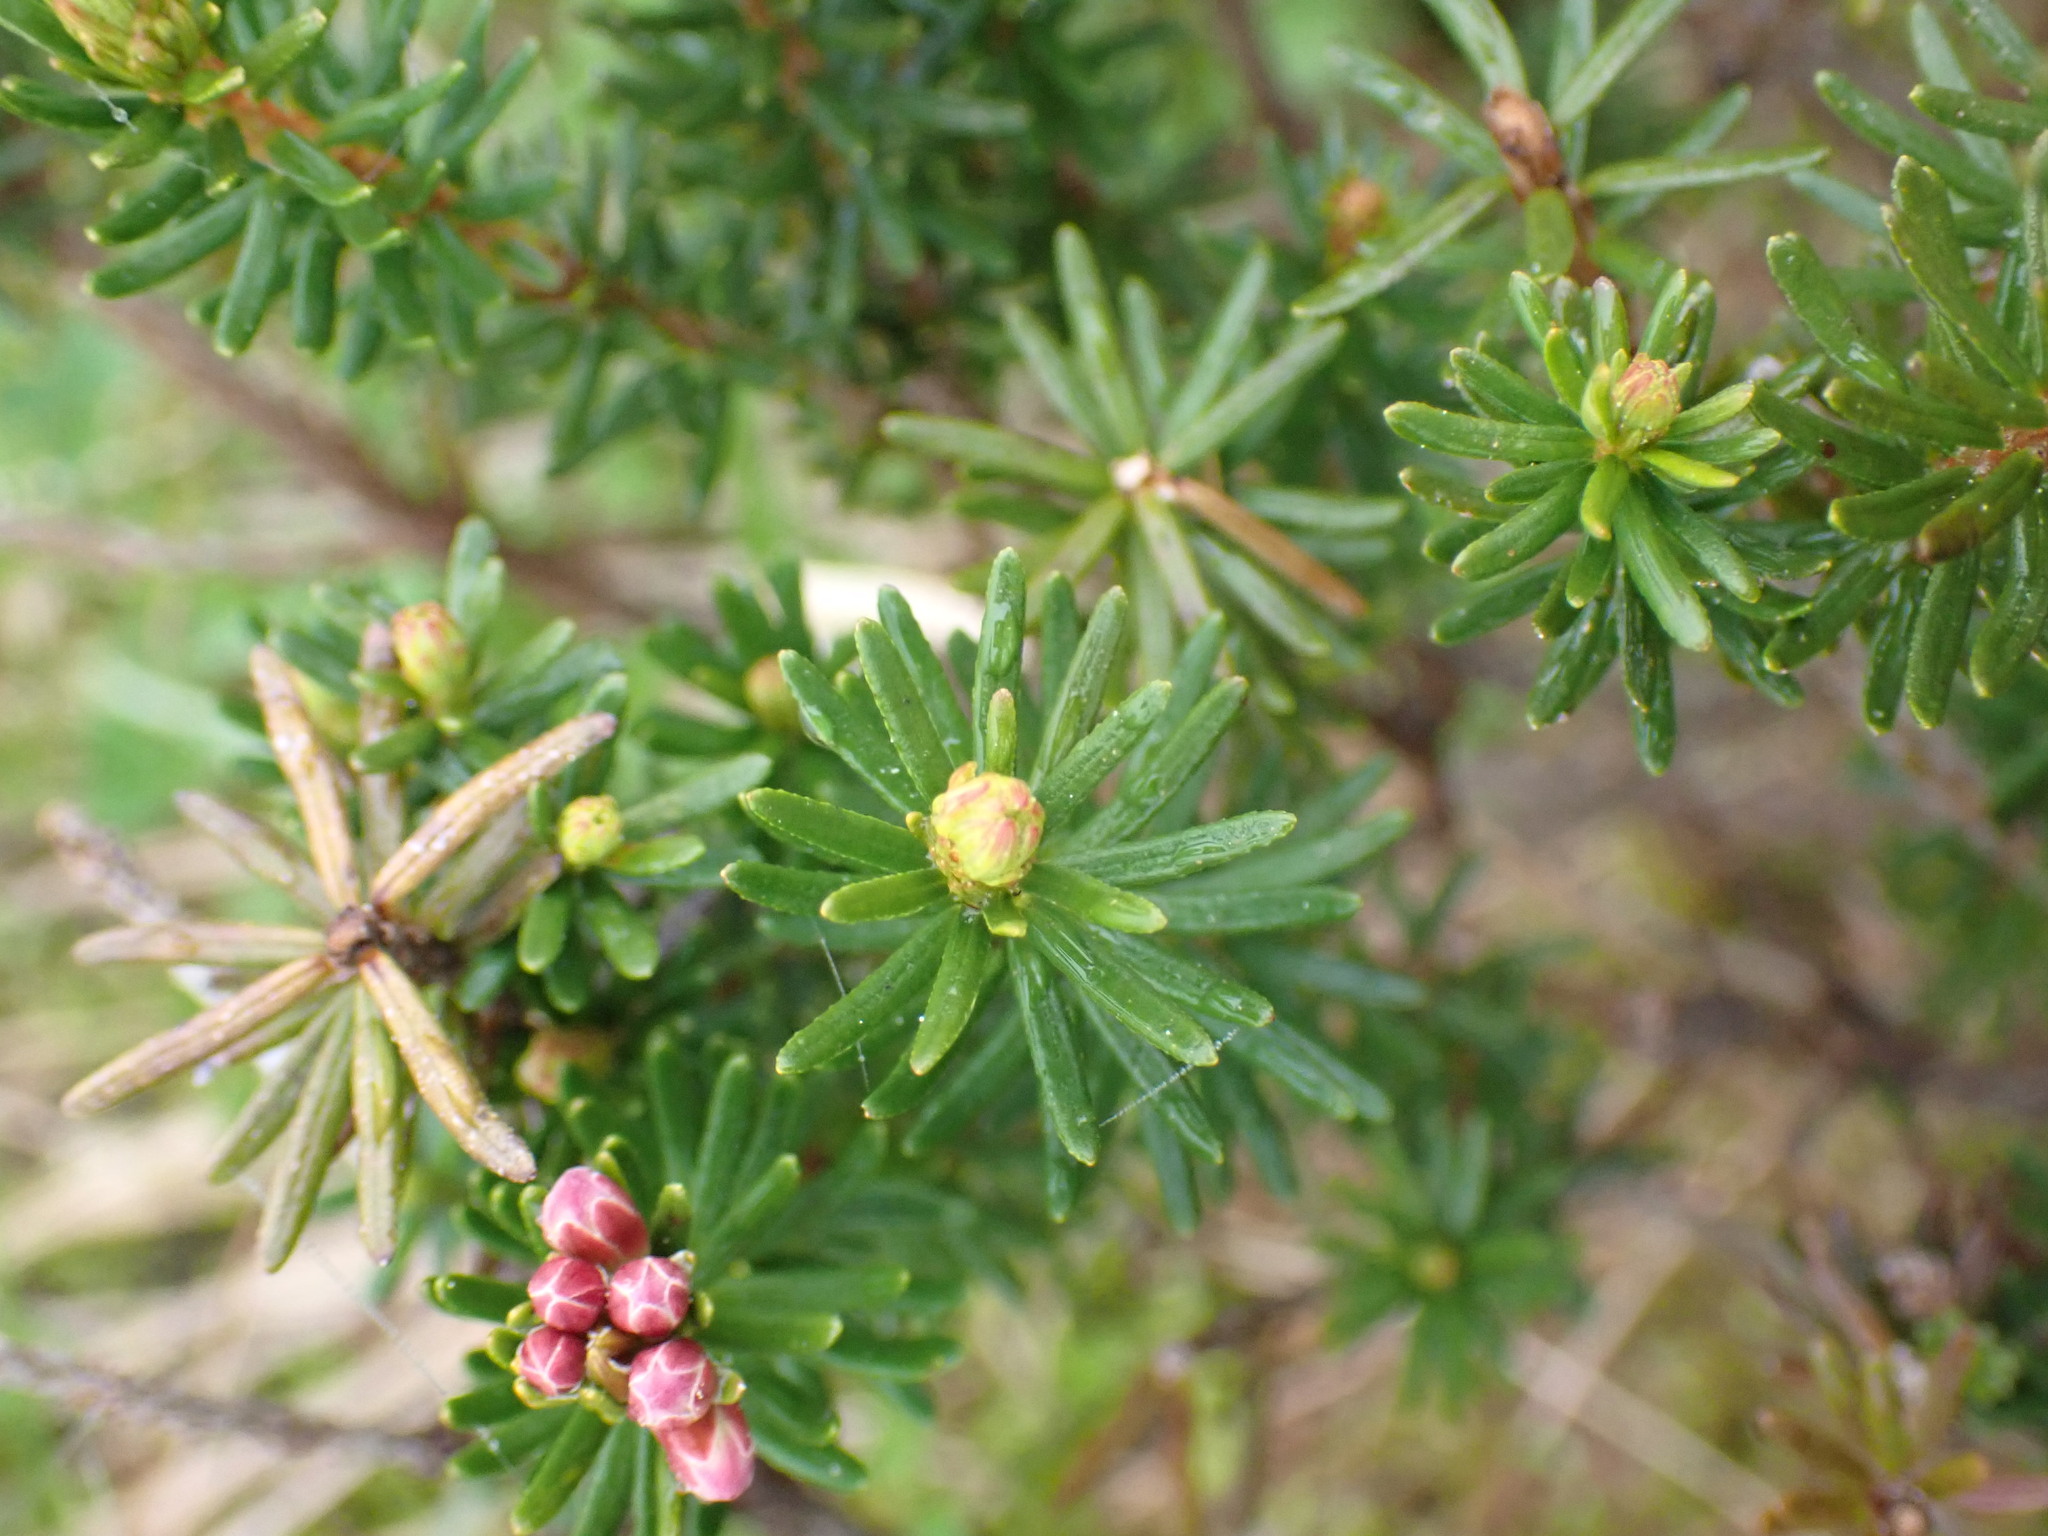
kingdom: Plantae
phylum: Tracheophyta
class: Magnoliopsida
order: Ericales
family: Ericaceae
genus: Phyllodoce
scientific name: Phyllodoce empetriformis
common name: Pink mountain heather
